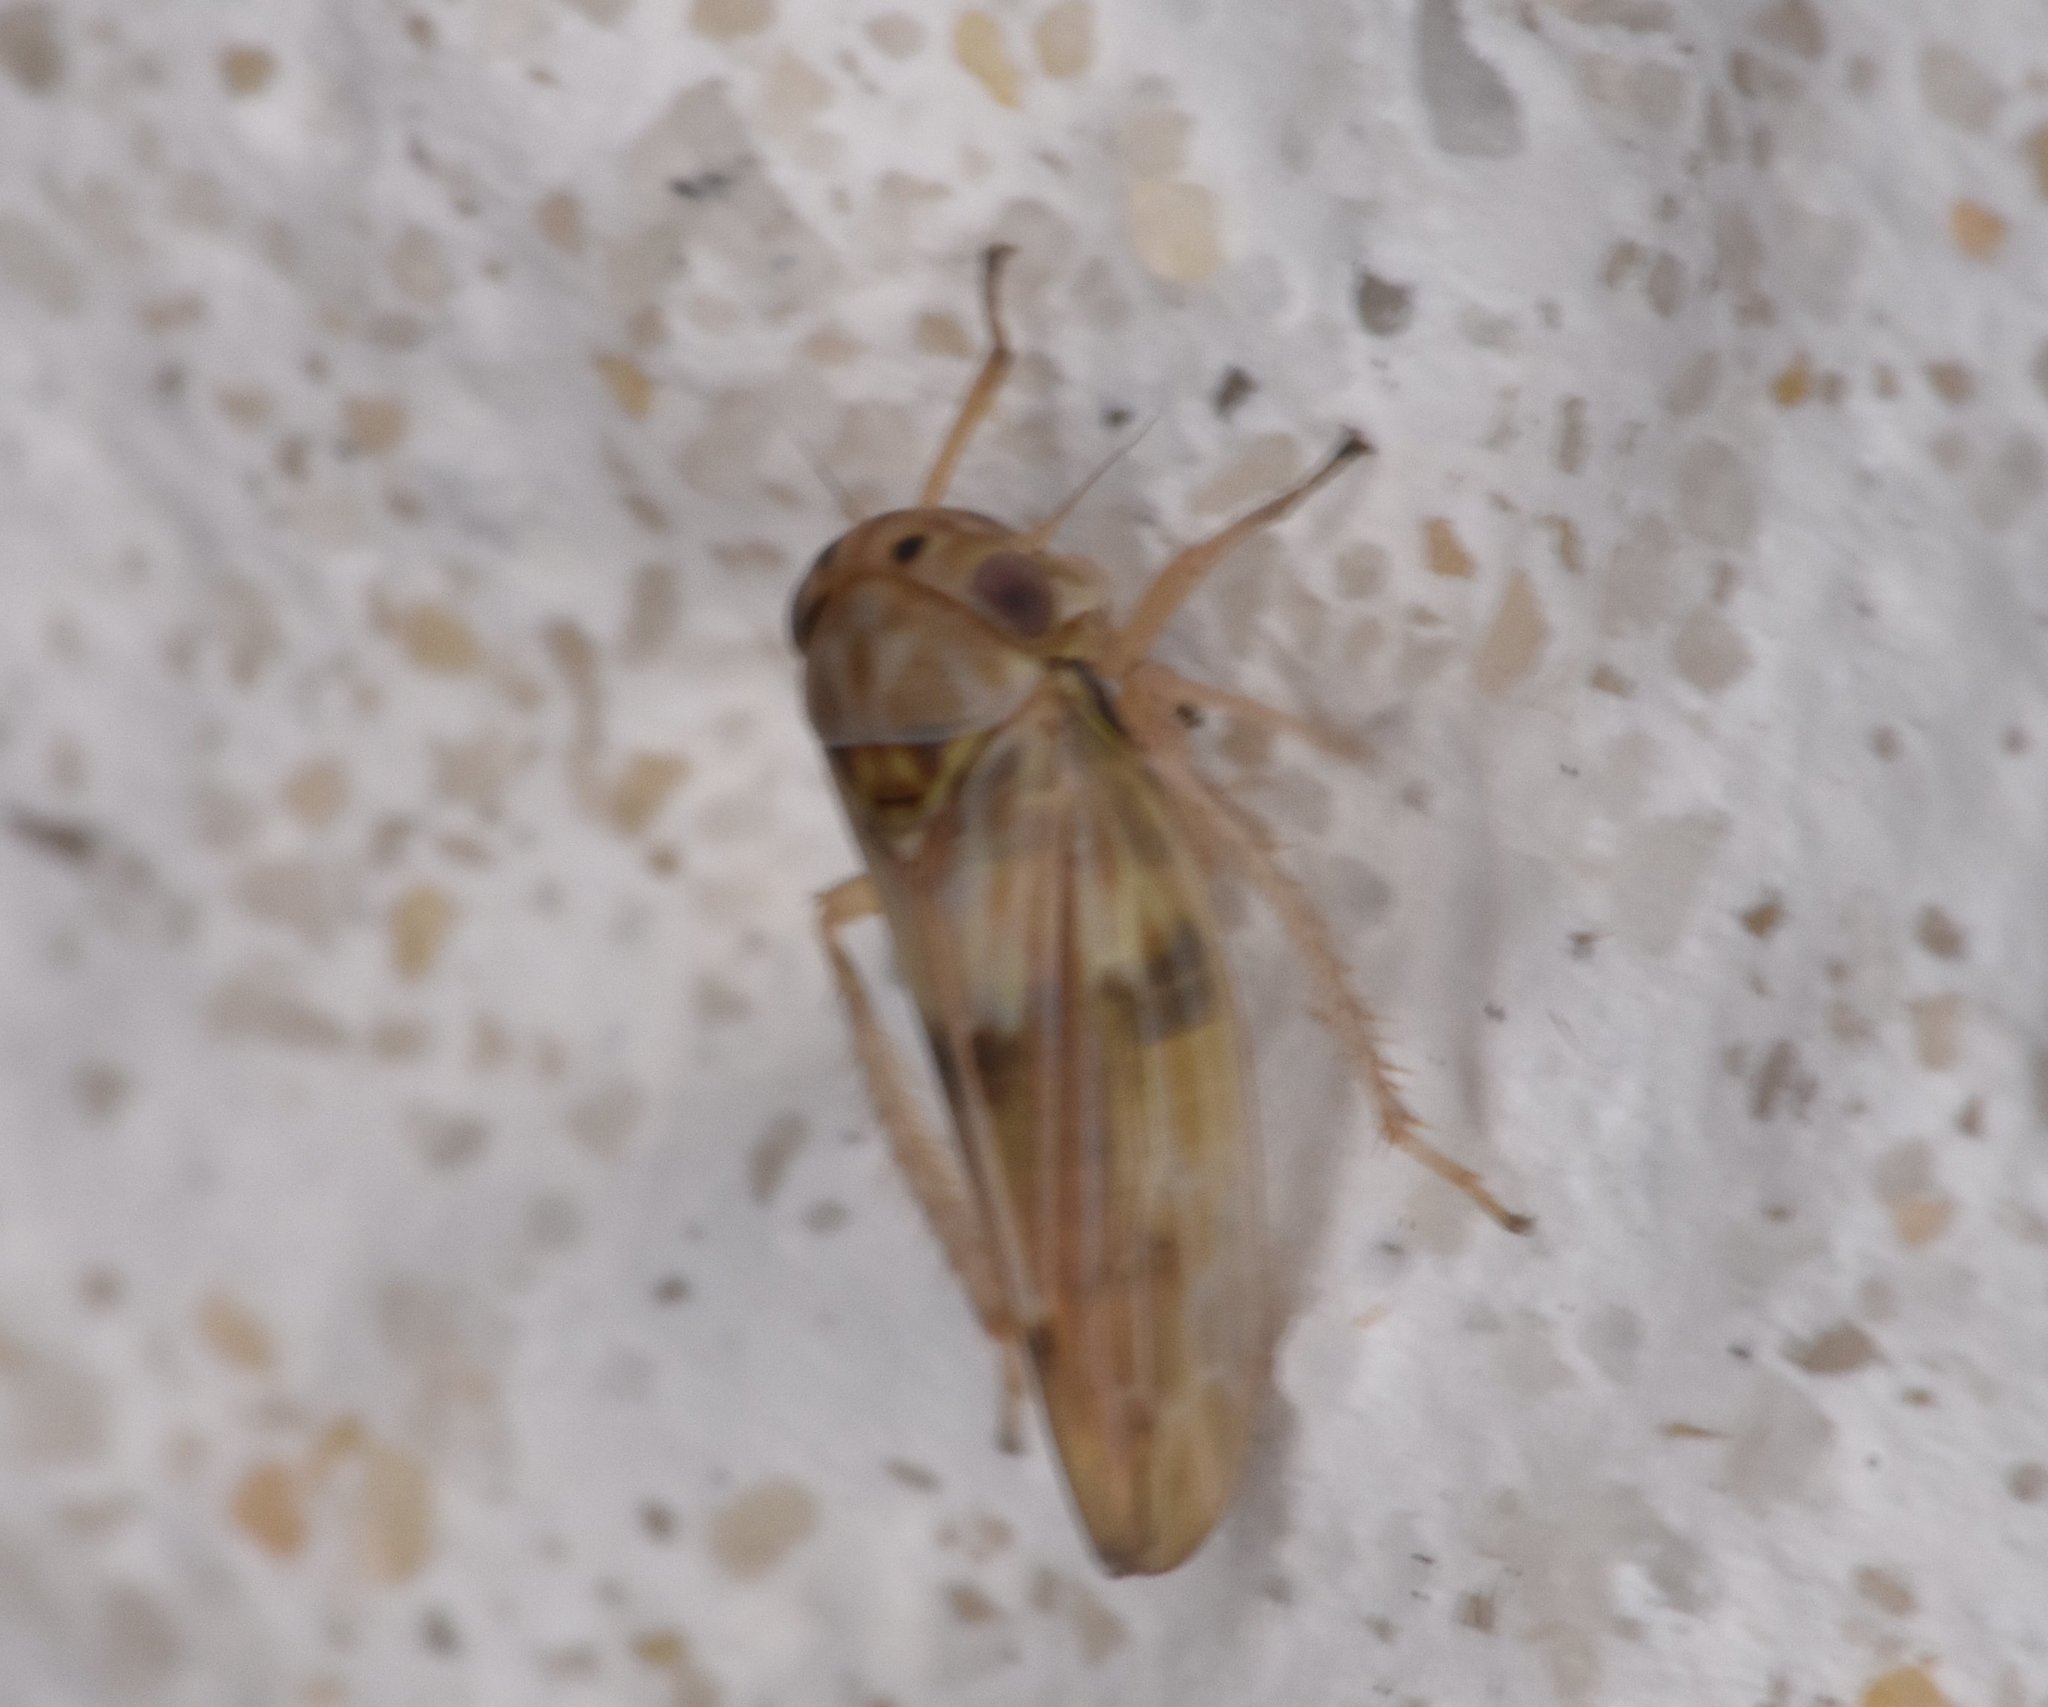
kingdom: Animalia
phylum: Arthropoda
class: Insecta
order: Hemiptera
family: Cicadellidae
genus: Agallia
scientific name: Agallia albidula
